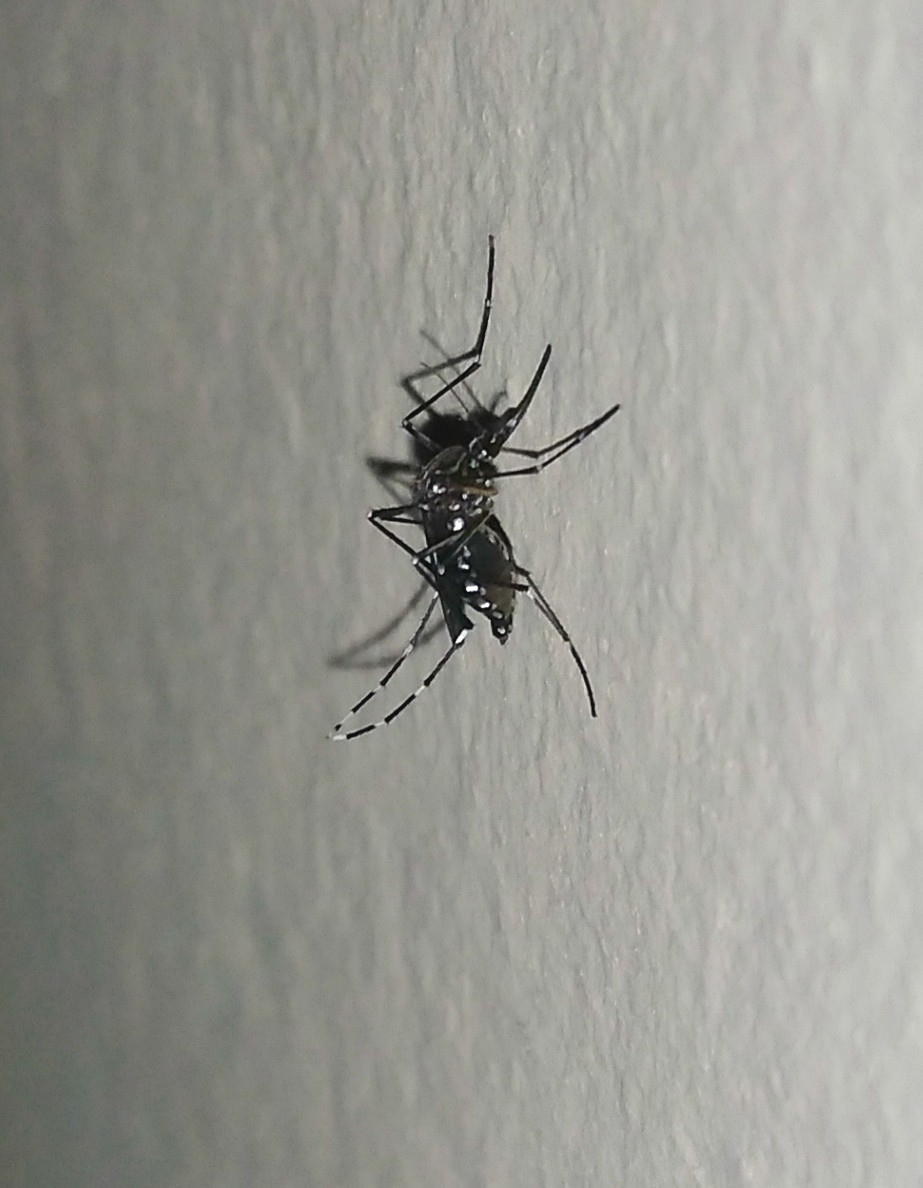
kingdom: Animalia
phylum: Arthropoda
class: Insecta
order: Diptera
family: Culicidae
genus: Aedes
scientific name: Aedes aegypti
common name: Yellow fever mosquito
